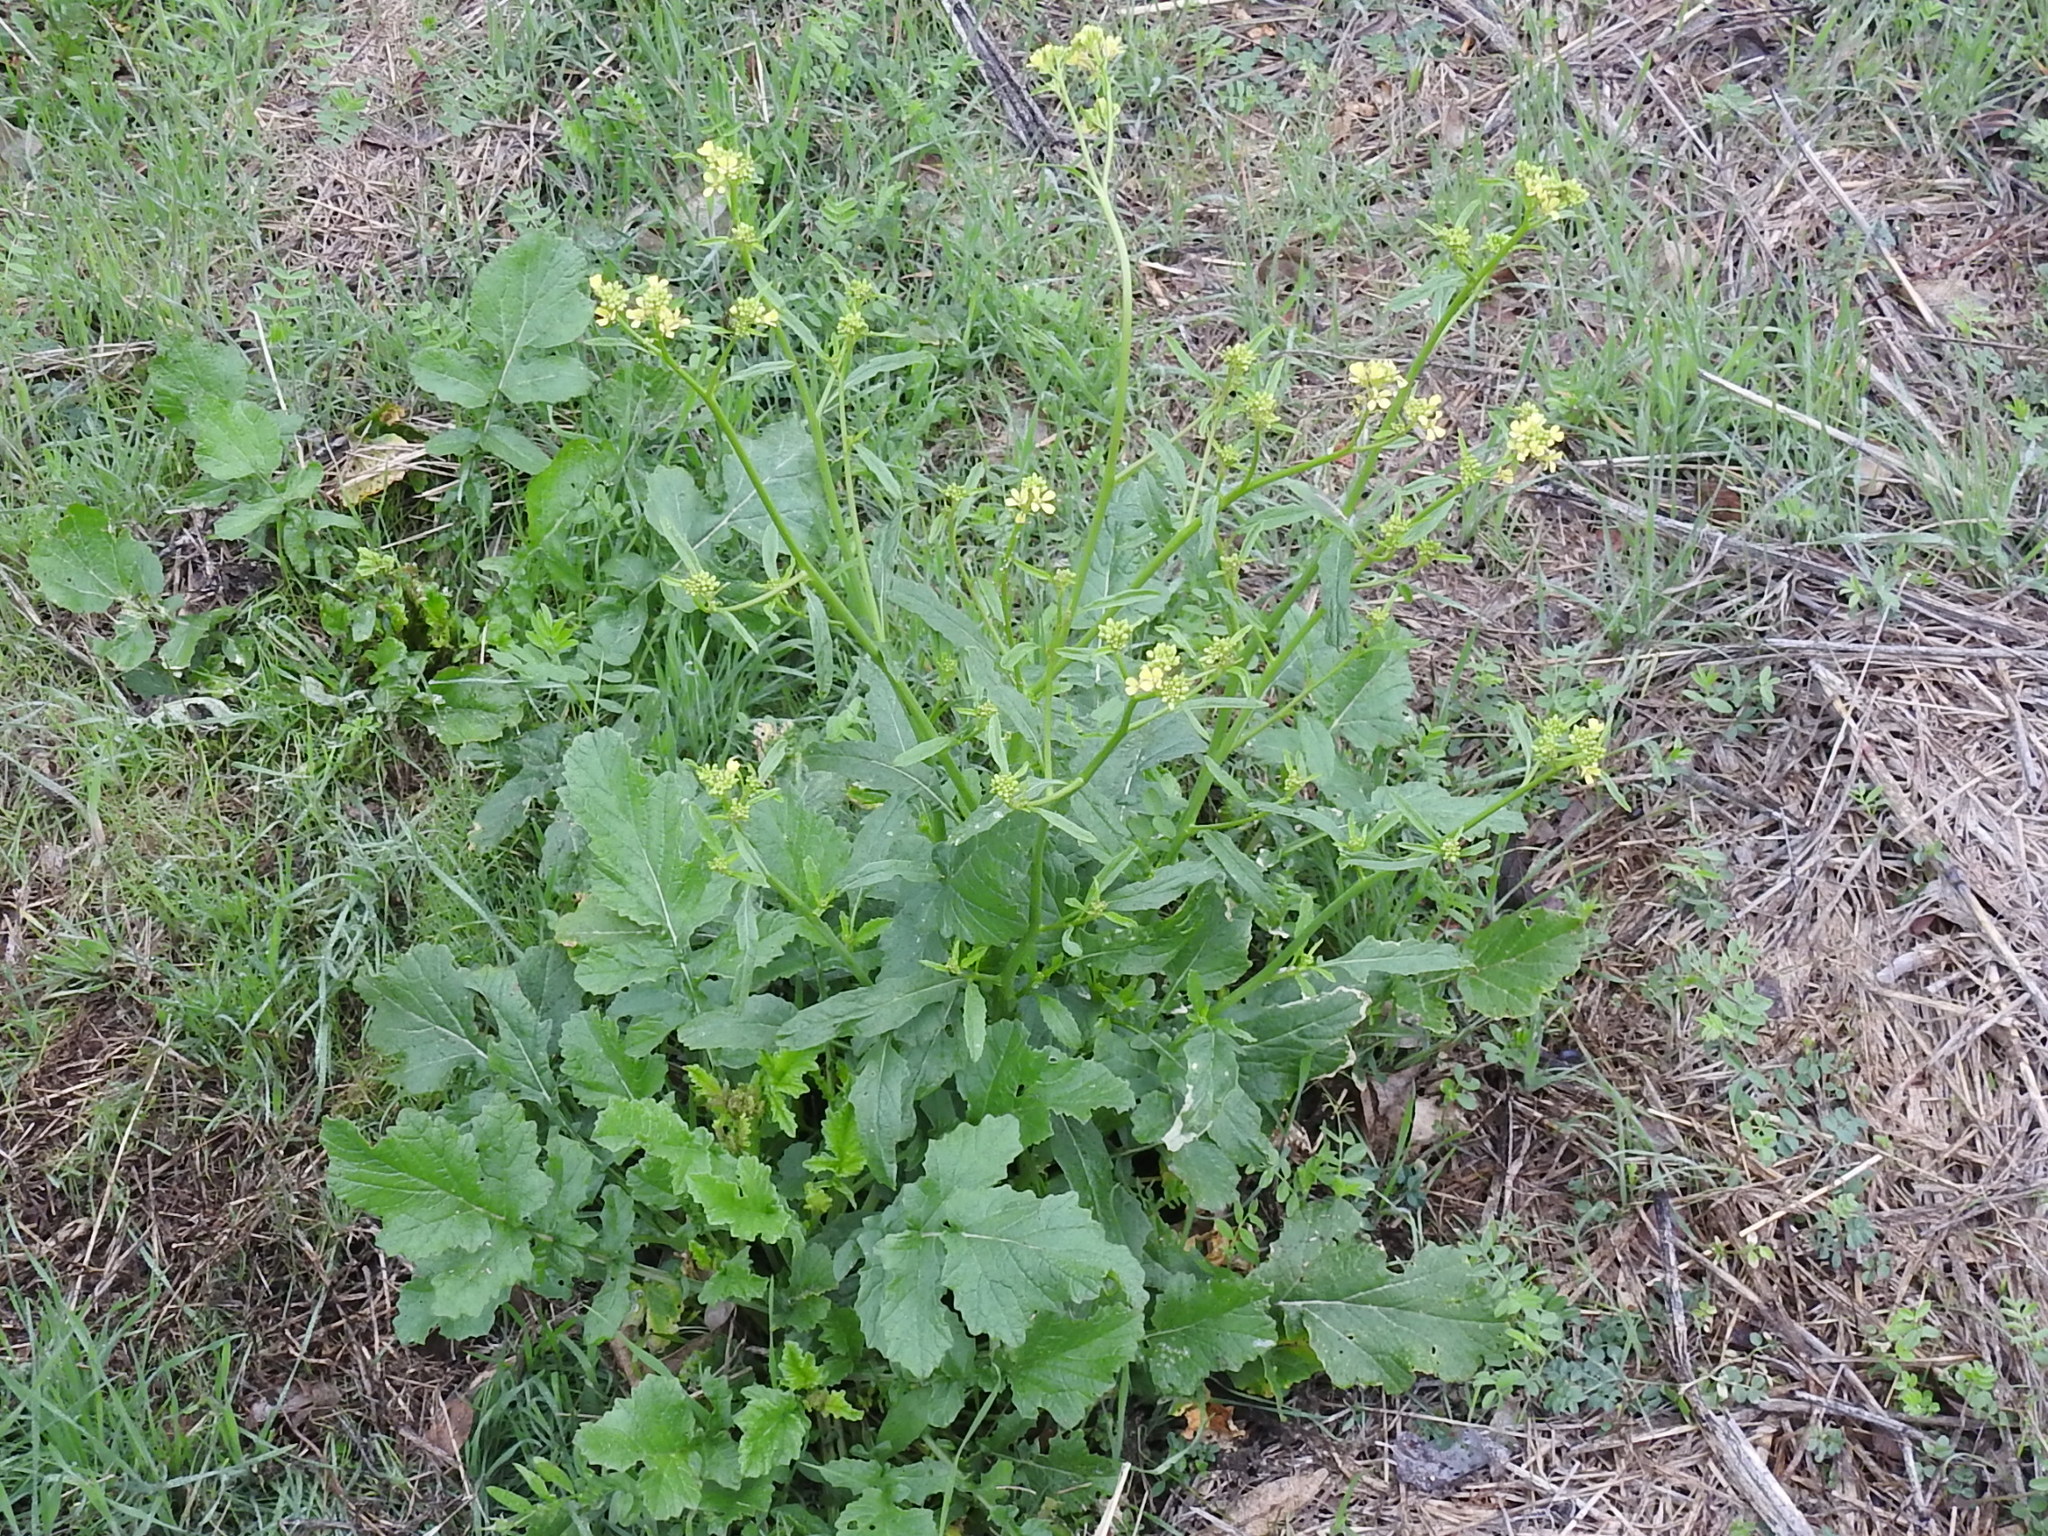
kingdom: Plantae
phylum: Tracheophyta
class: Magnoliopsida
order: Brassicales
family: Brassicaceae
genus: Rapistrum
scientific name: Rapistrum rugosum
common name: Annual bastardcabbage
